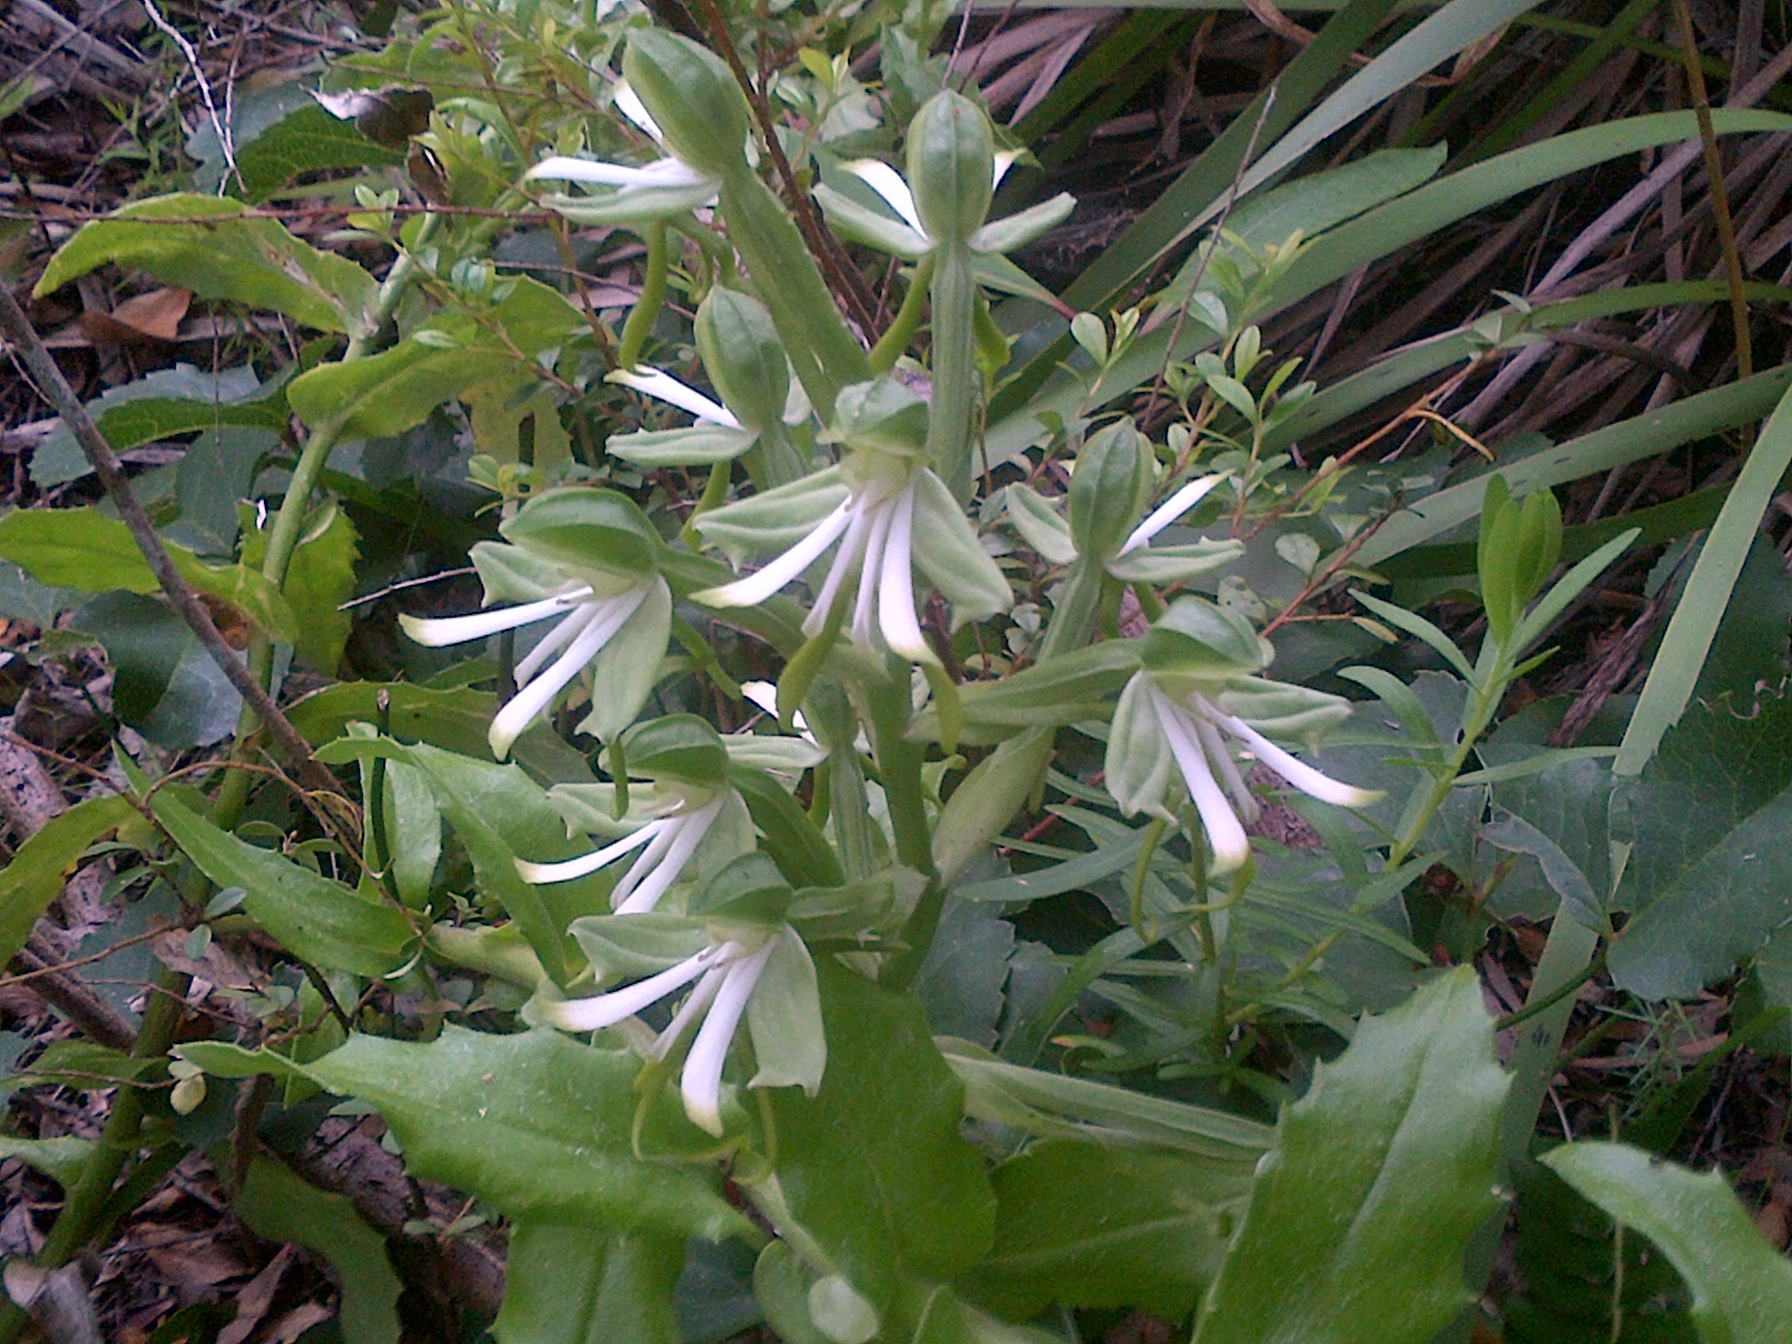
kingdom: Plantae
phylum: Tracheophyta
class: Liliopsida
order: Asparagales
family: Orchidaceae
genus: Bonatea
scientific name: Bonatea speciosa
